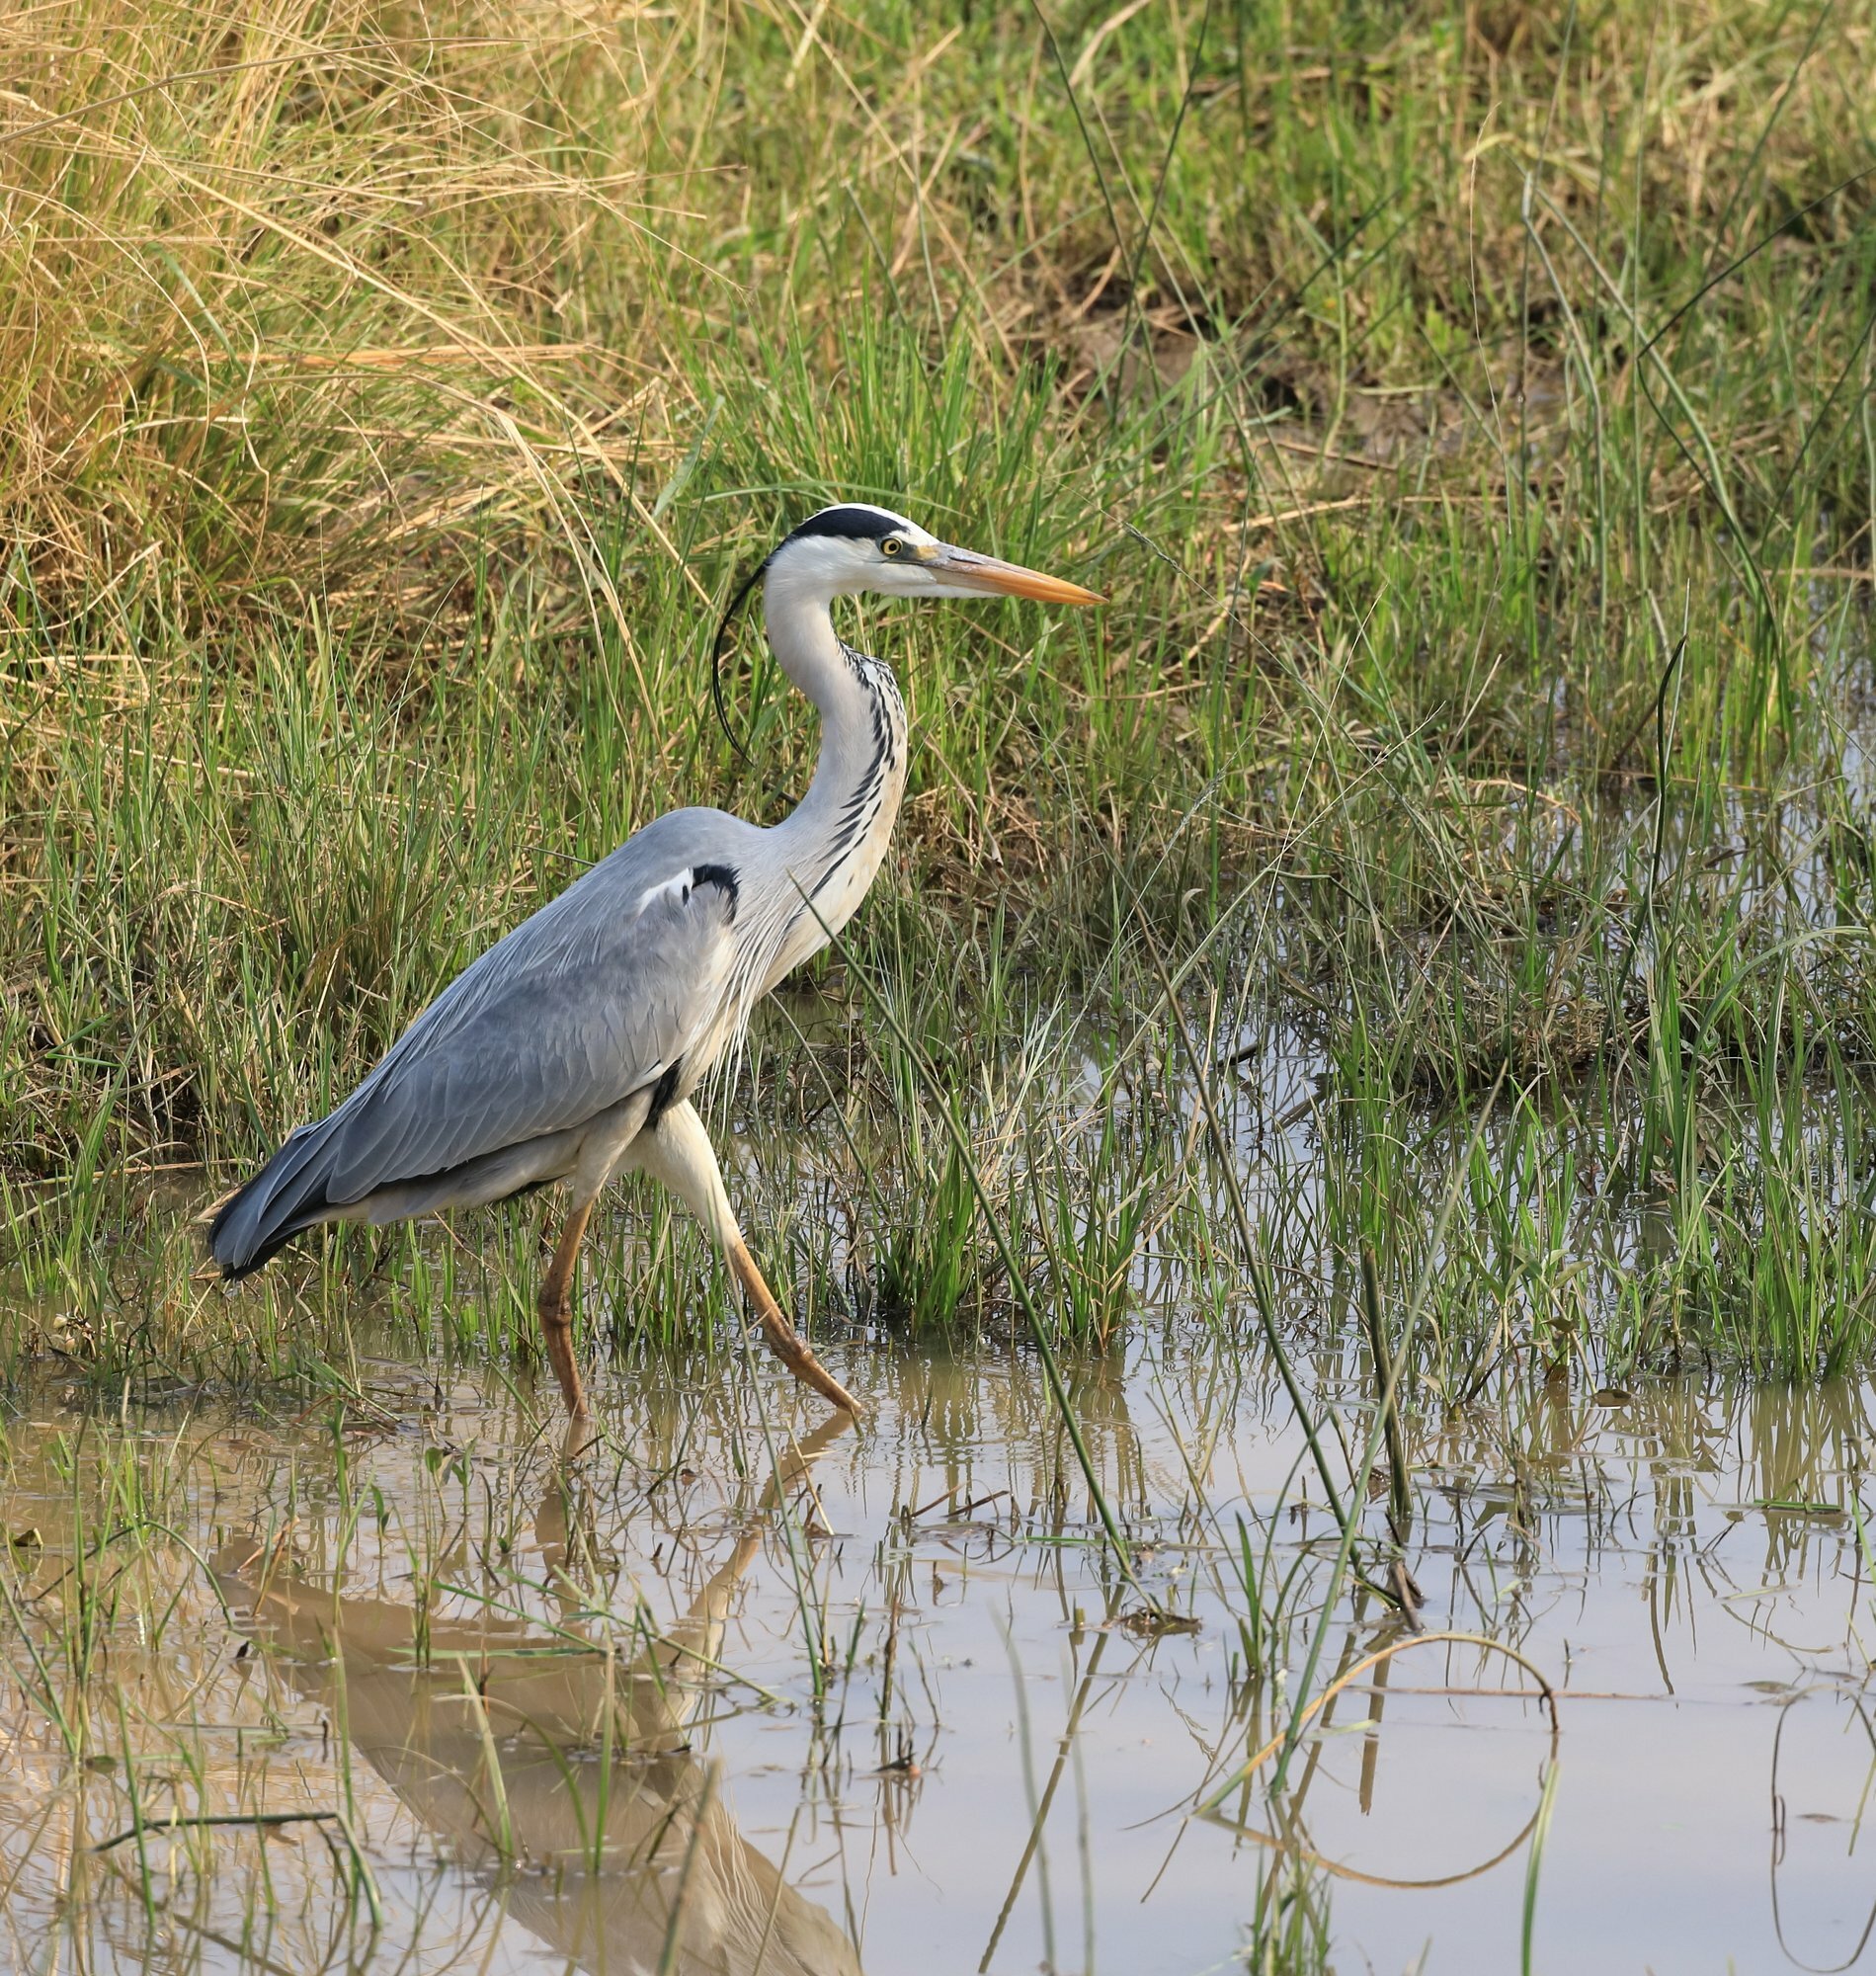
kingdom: Animalia
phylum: Chordata
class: Aves
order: Pelecaniformes
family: Ardeidae
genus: Ardea
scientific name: Ardea cinerea
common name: Grey heron
